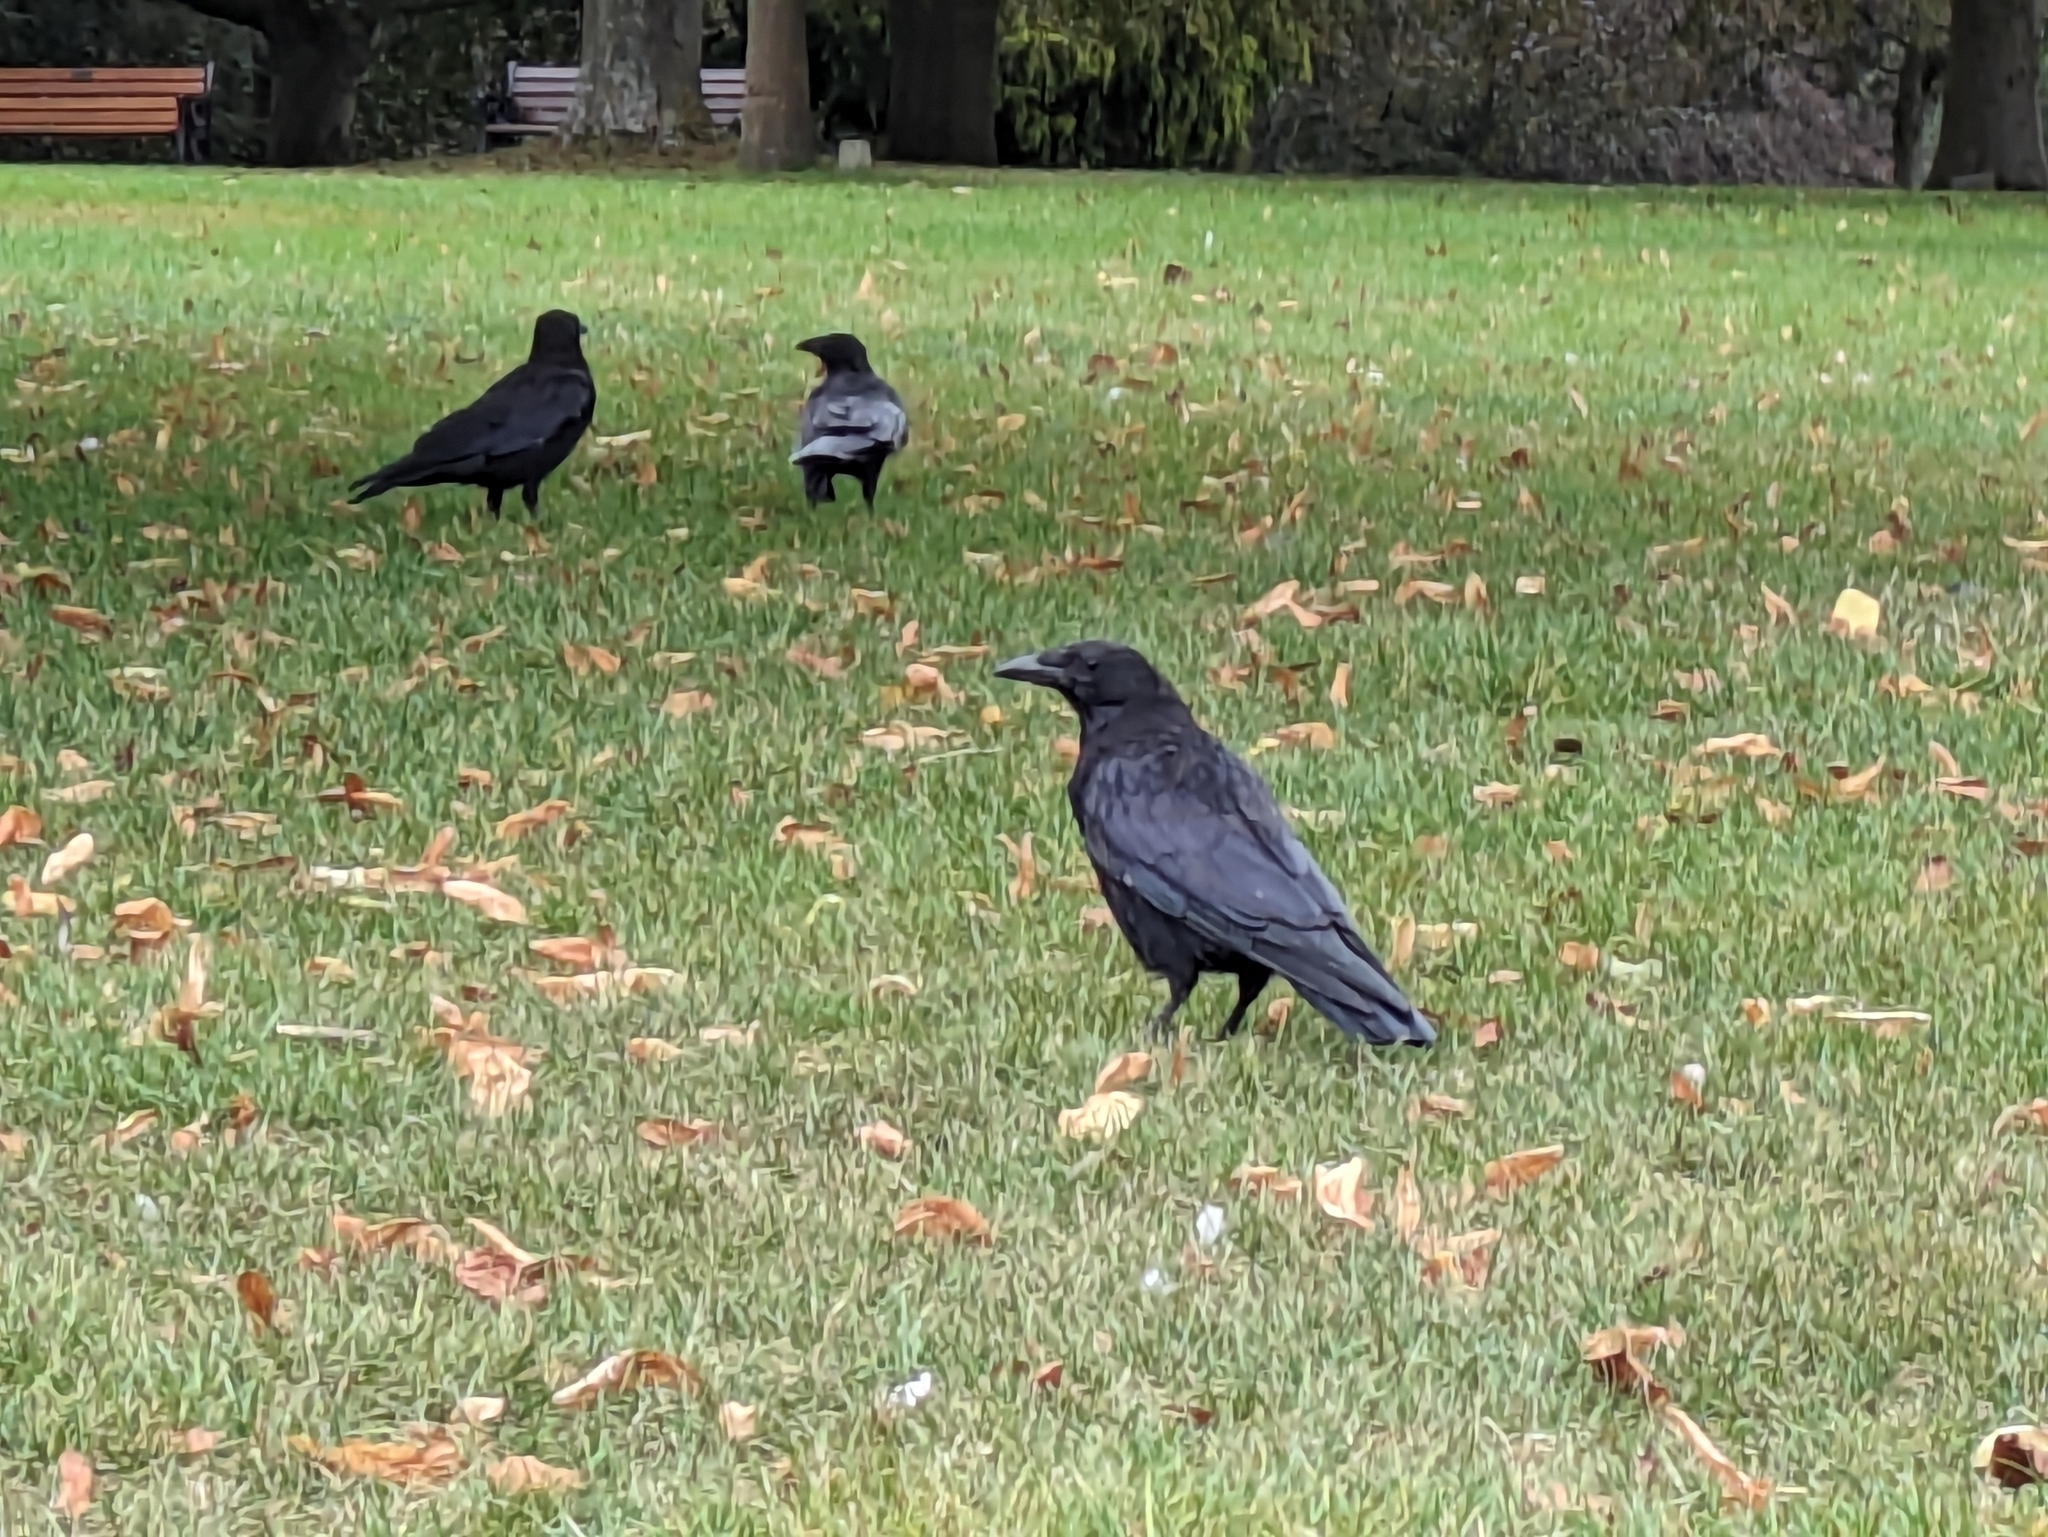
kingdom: Animalia
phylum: Chordata
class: Aves
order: Passeriformes
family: Corvidae
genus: Corvus
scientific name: Corvus corone
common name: Carrion crow
